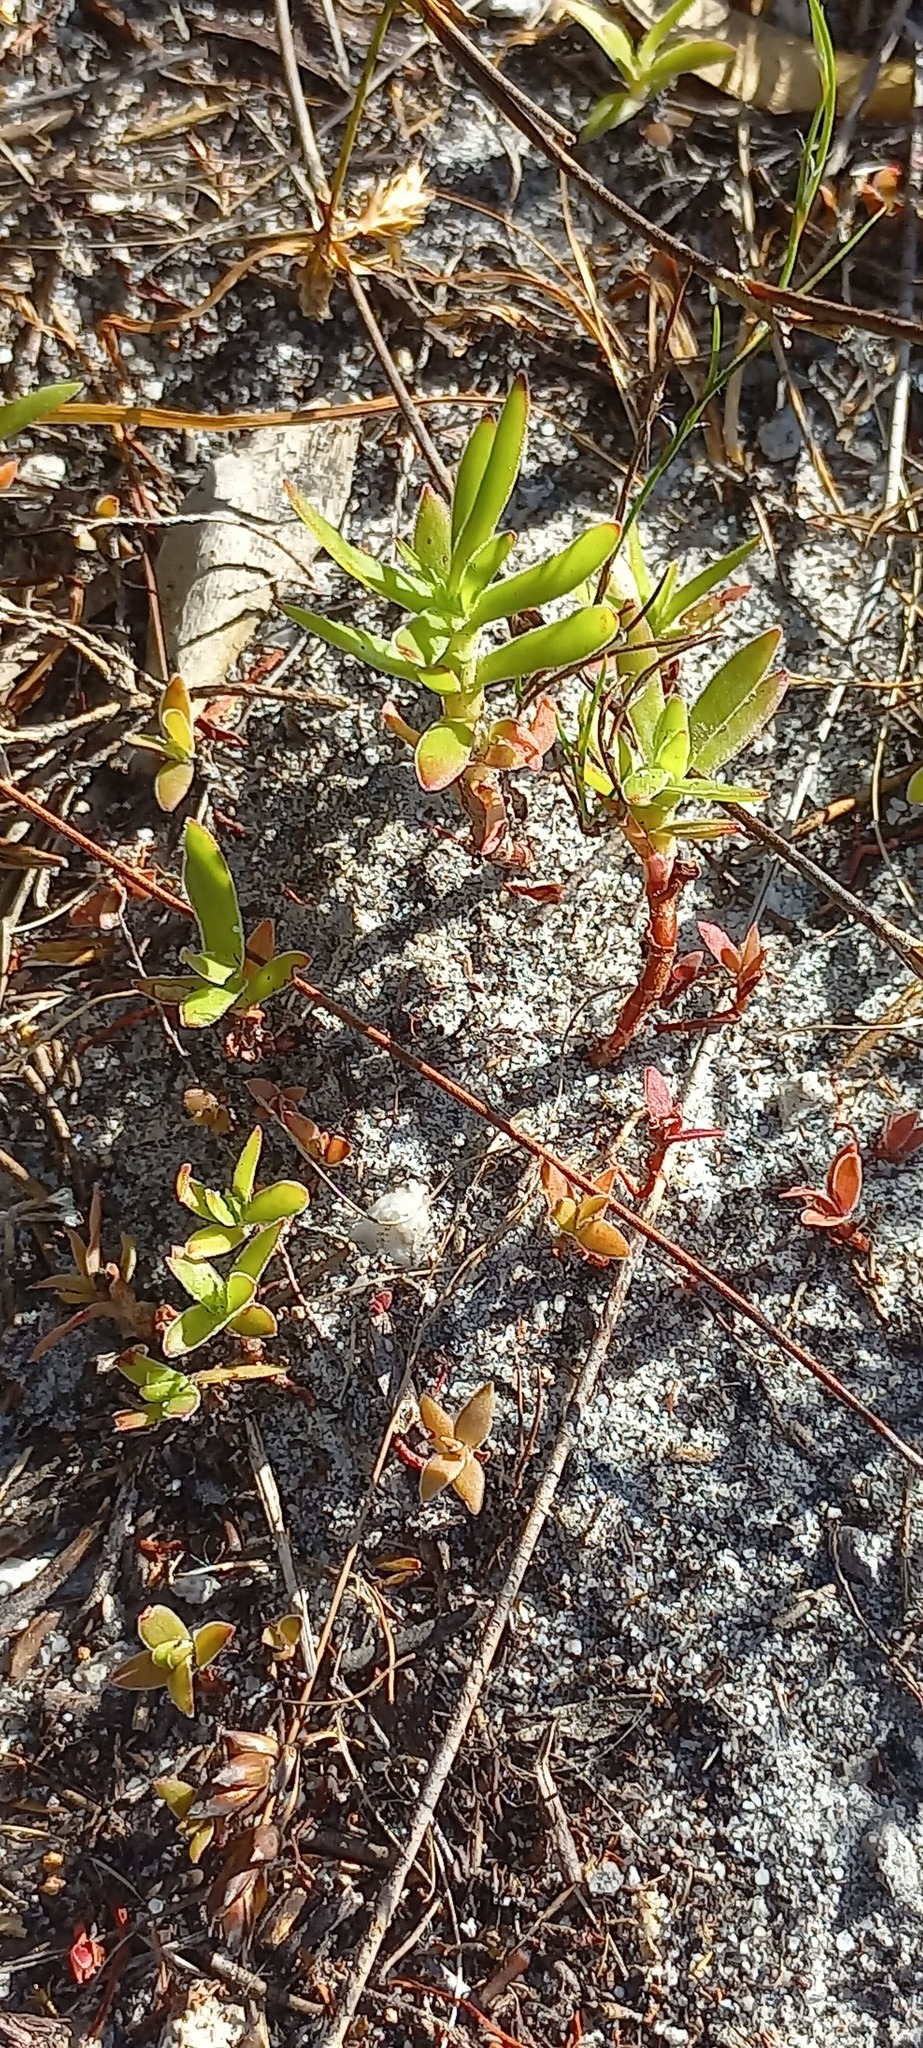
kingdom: Plantae
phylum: Tracheophyta
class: Magnoliopsida
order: Saxifragales
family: Crassulaceae
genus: Crassula
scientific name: Crassula fascicularis
